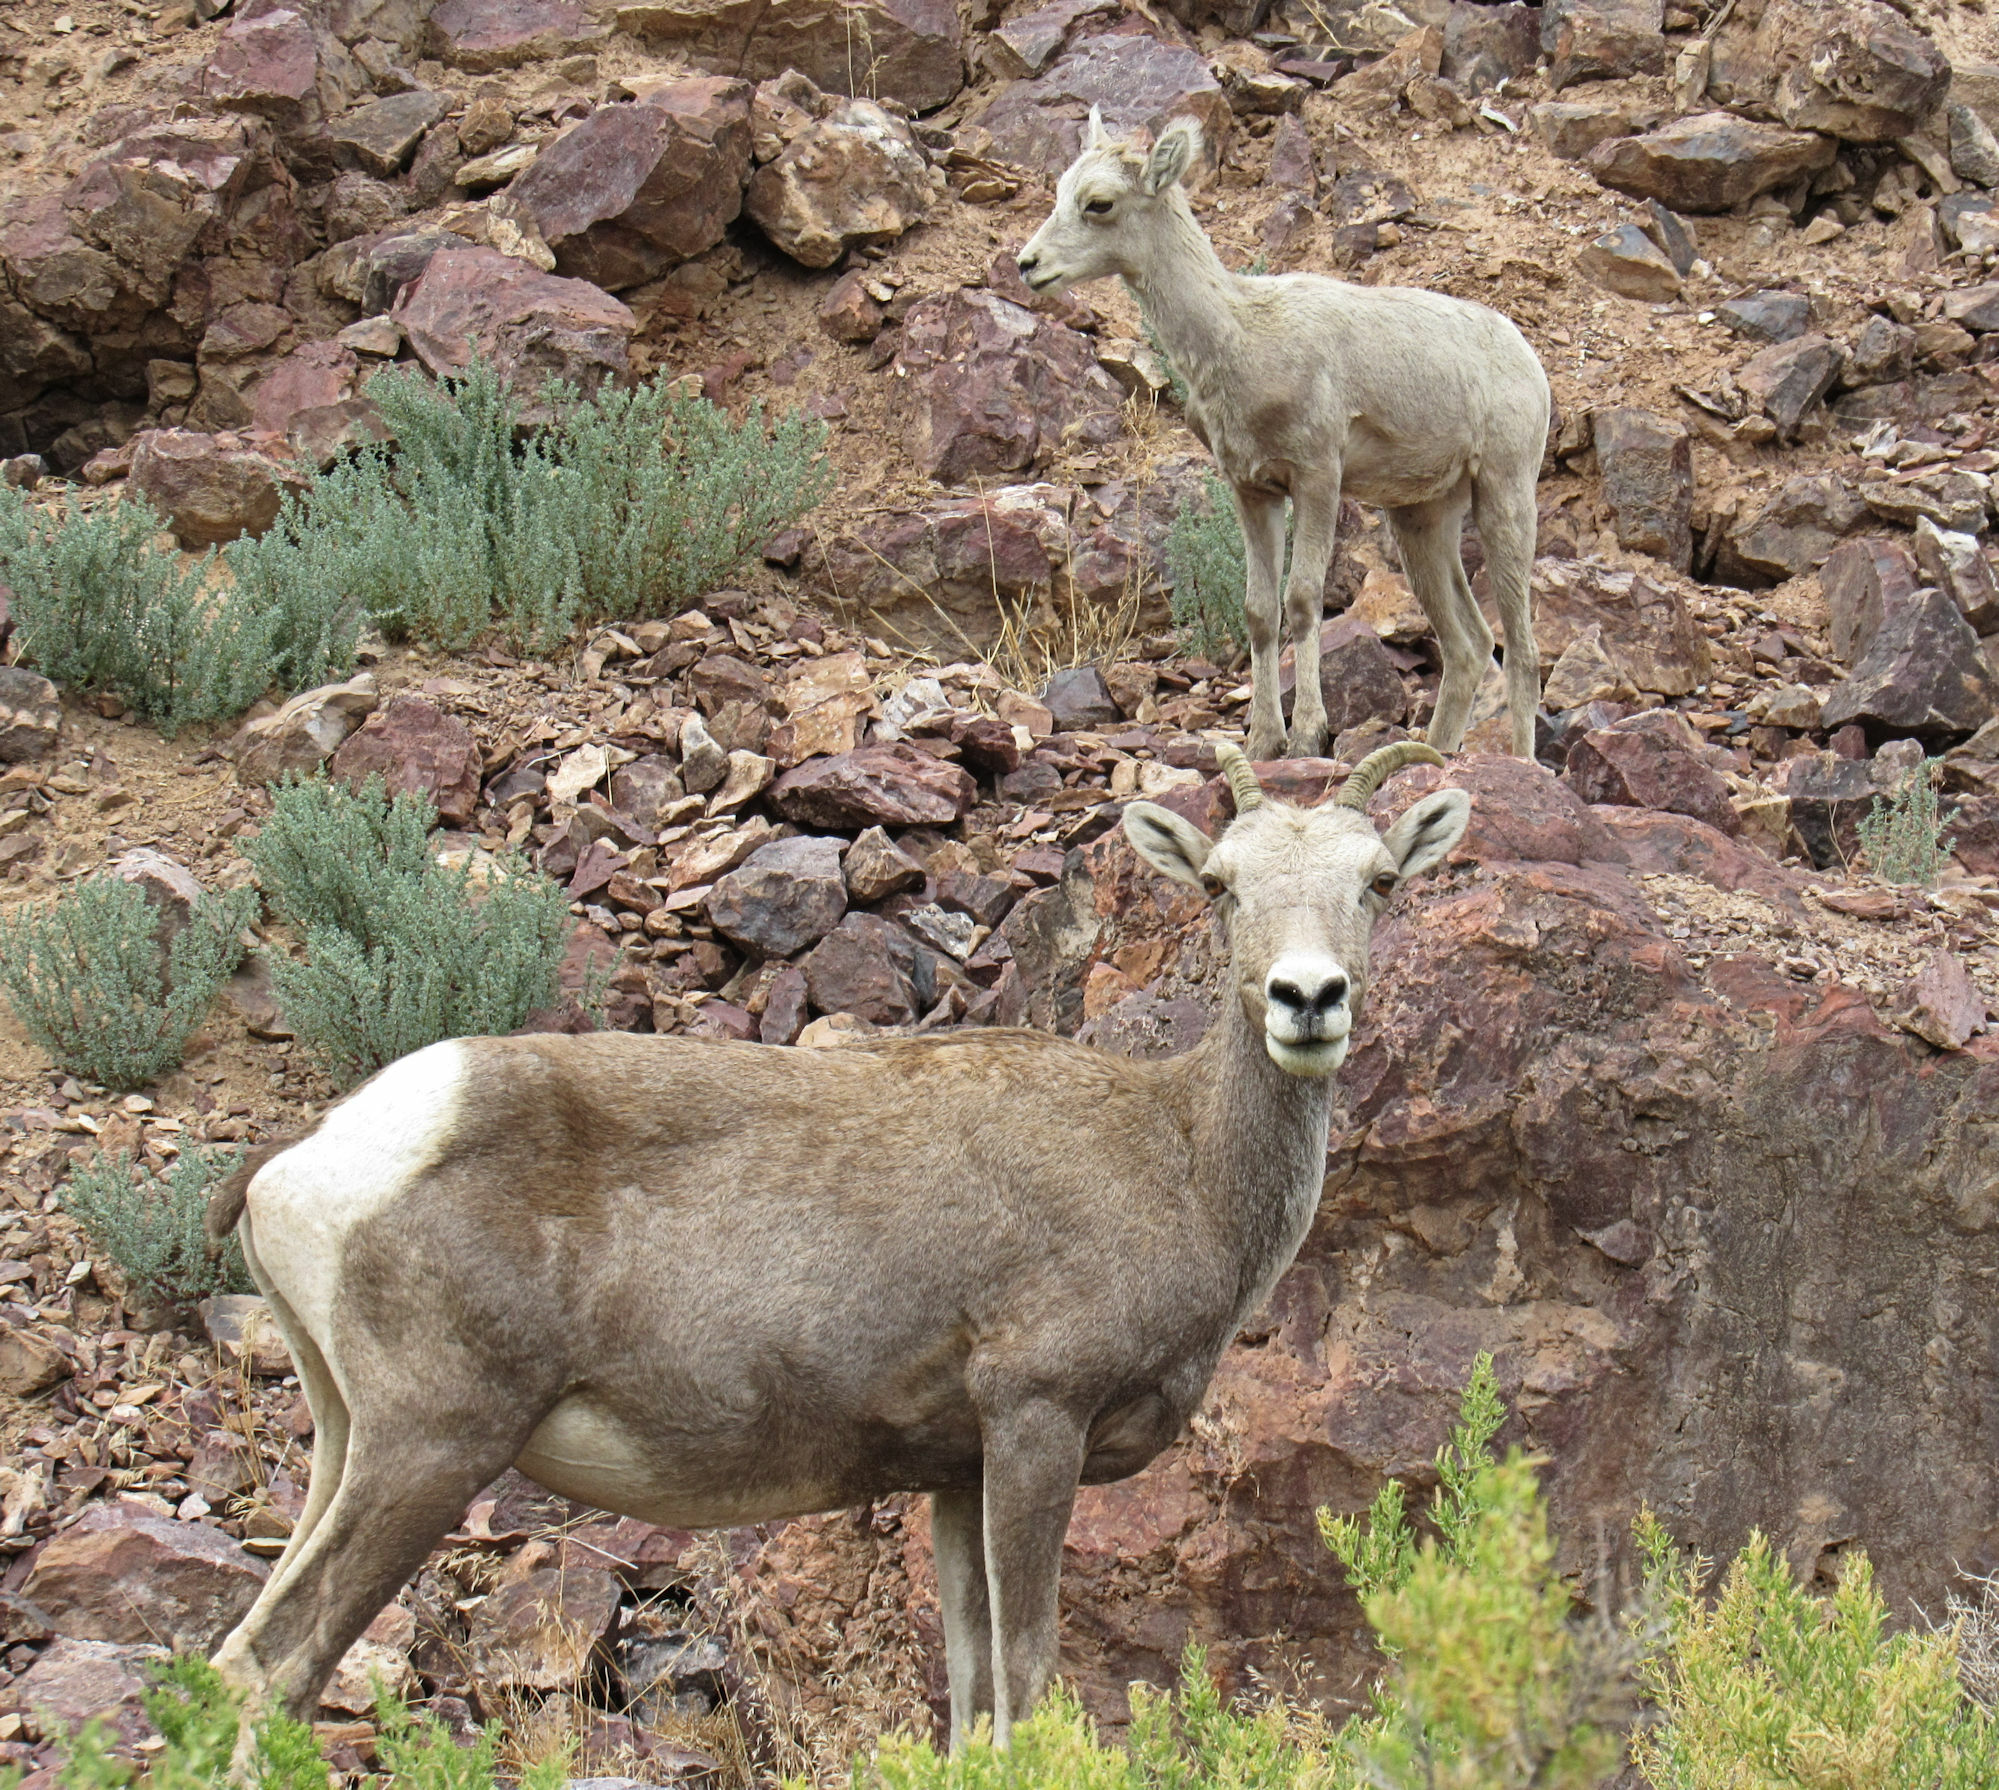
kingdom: Animalia
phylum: Chordata
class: Mammalia
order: Artiodactyla
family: Bovidae
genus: Ovis
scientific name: Ovis canadensis
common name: Bighorn sheep
